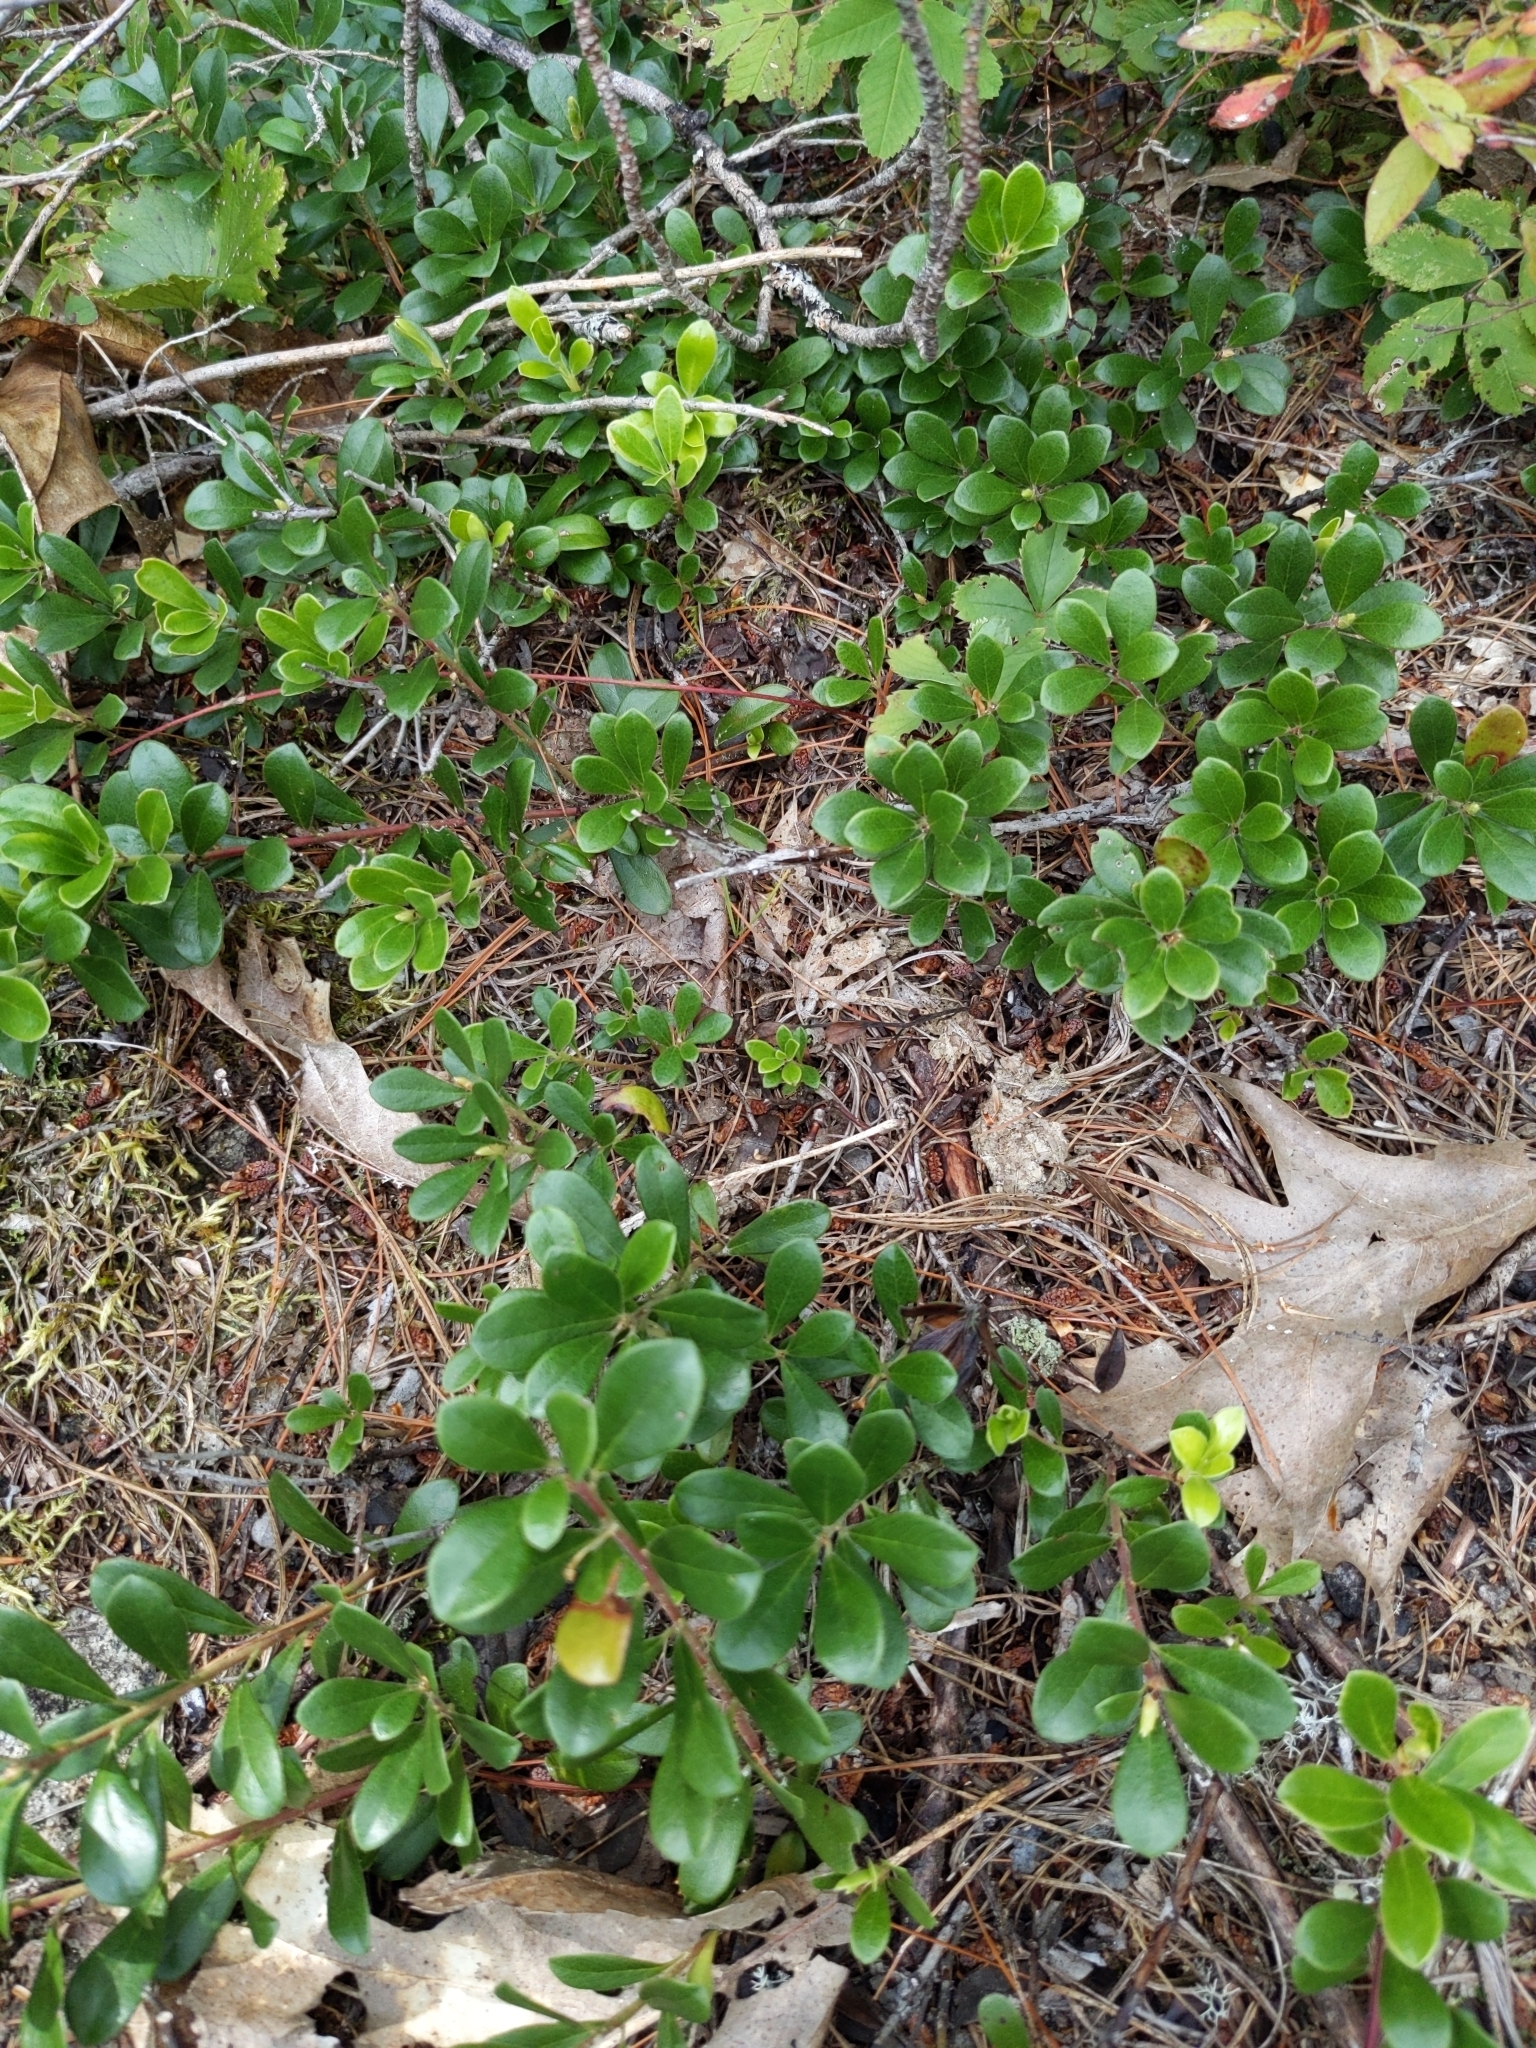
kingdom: Plantae
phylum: Tracheophyta
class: Magnoliopsida
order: Ericales
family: Ericaceae
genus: Arctostaphylos
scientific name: Arctostaphylos uva-ursi
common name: Bearberry
